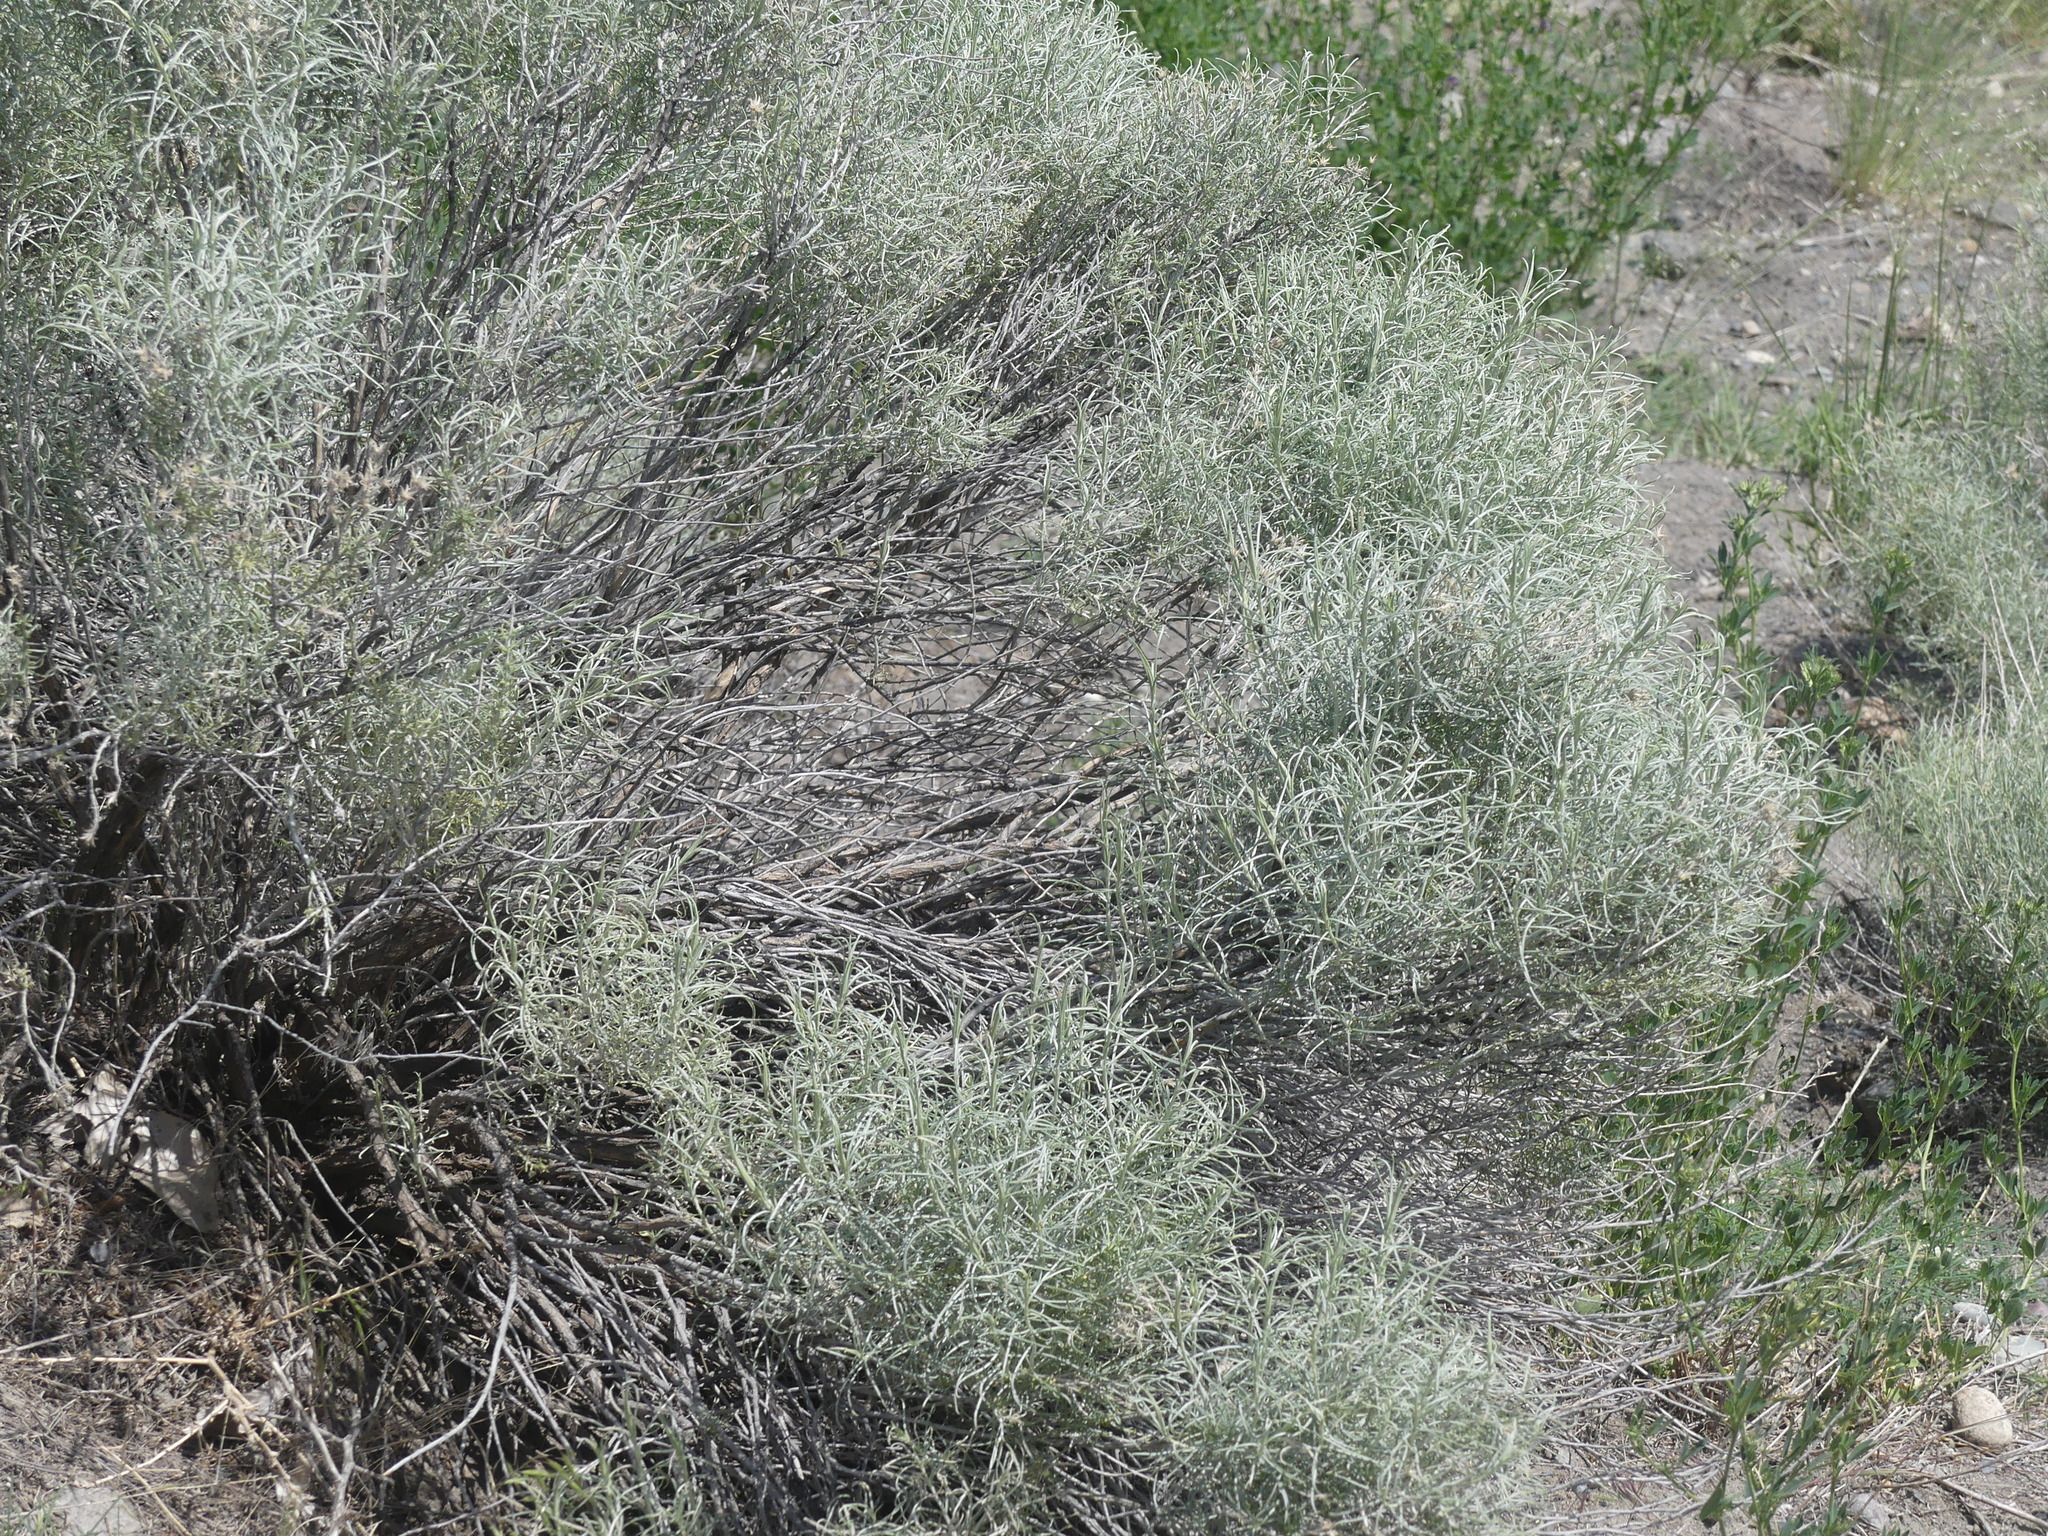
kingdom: Plantae
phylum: Tracheophyta
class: Magnoliopsida
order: Asterales
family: Asteraceae
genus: Ericameria
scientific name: Ericameria nauseosa
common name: Rubber rabbitbrush
